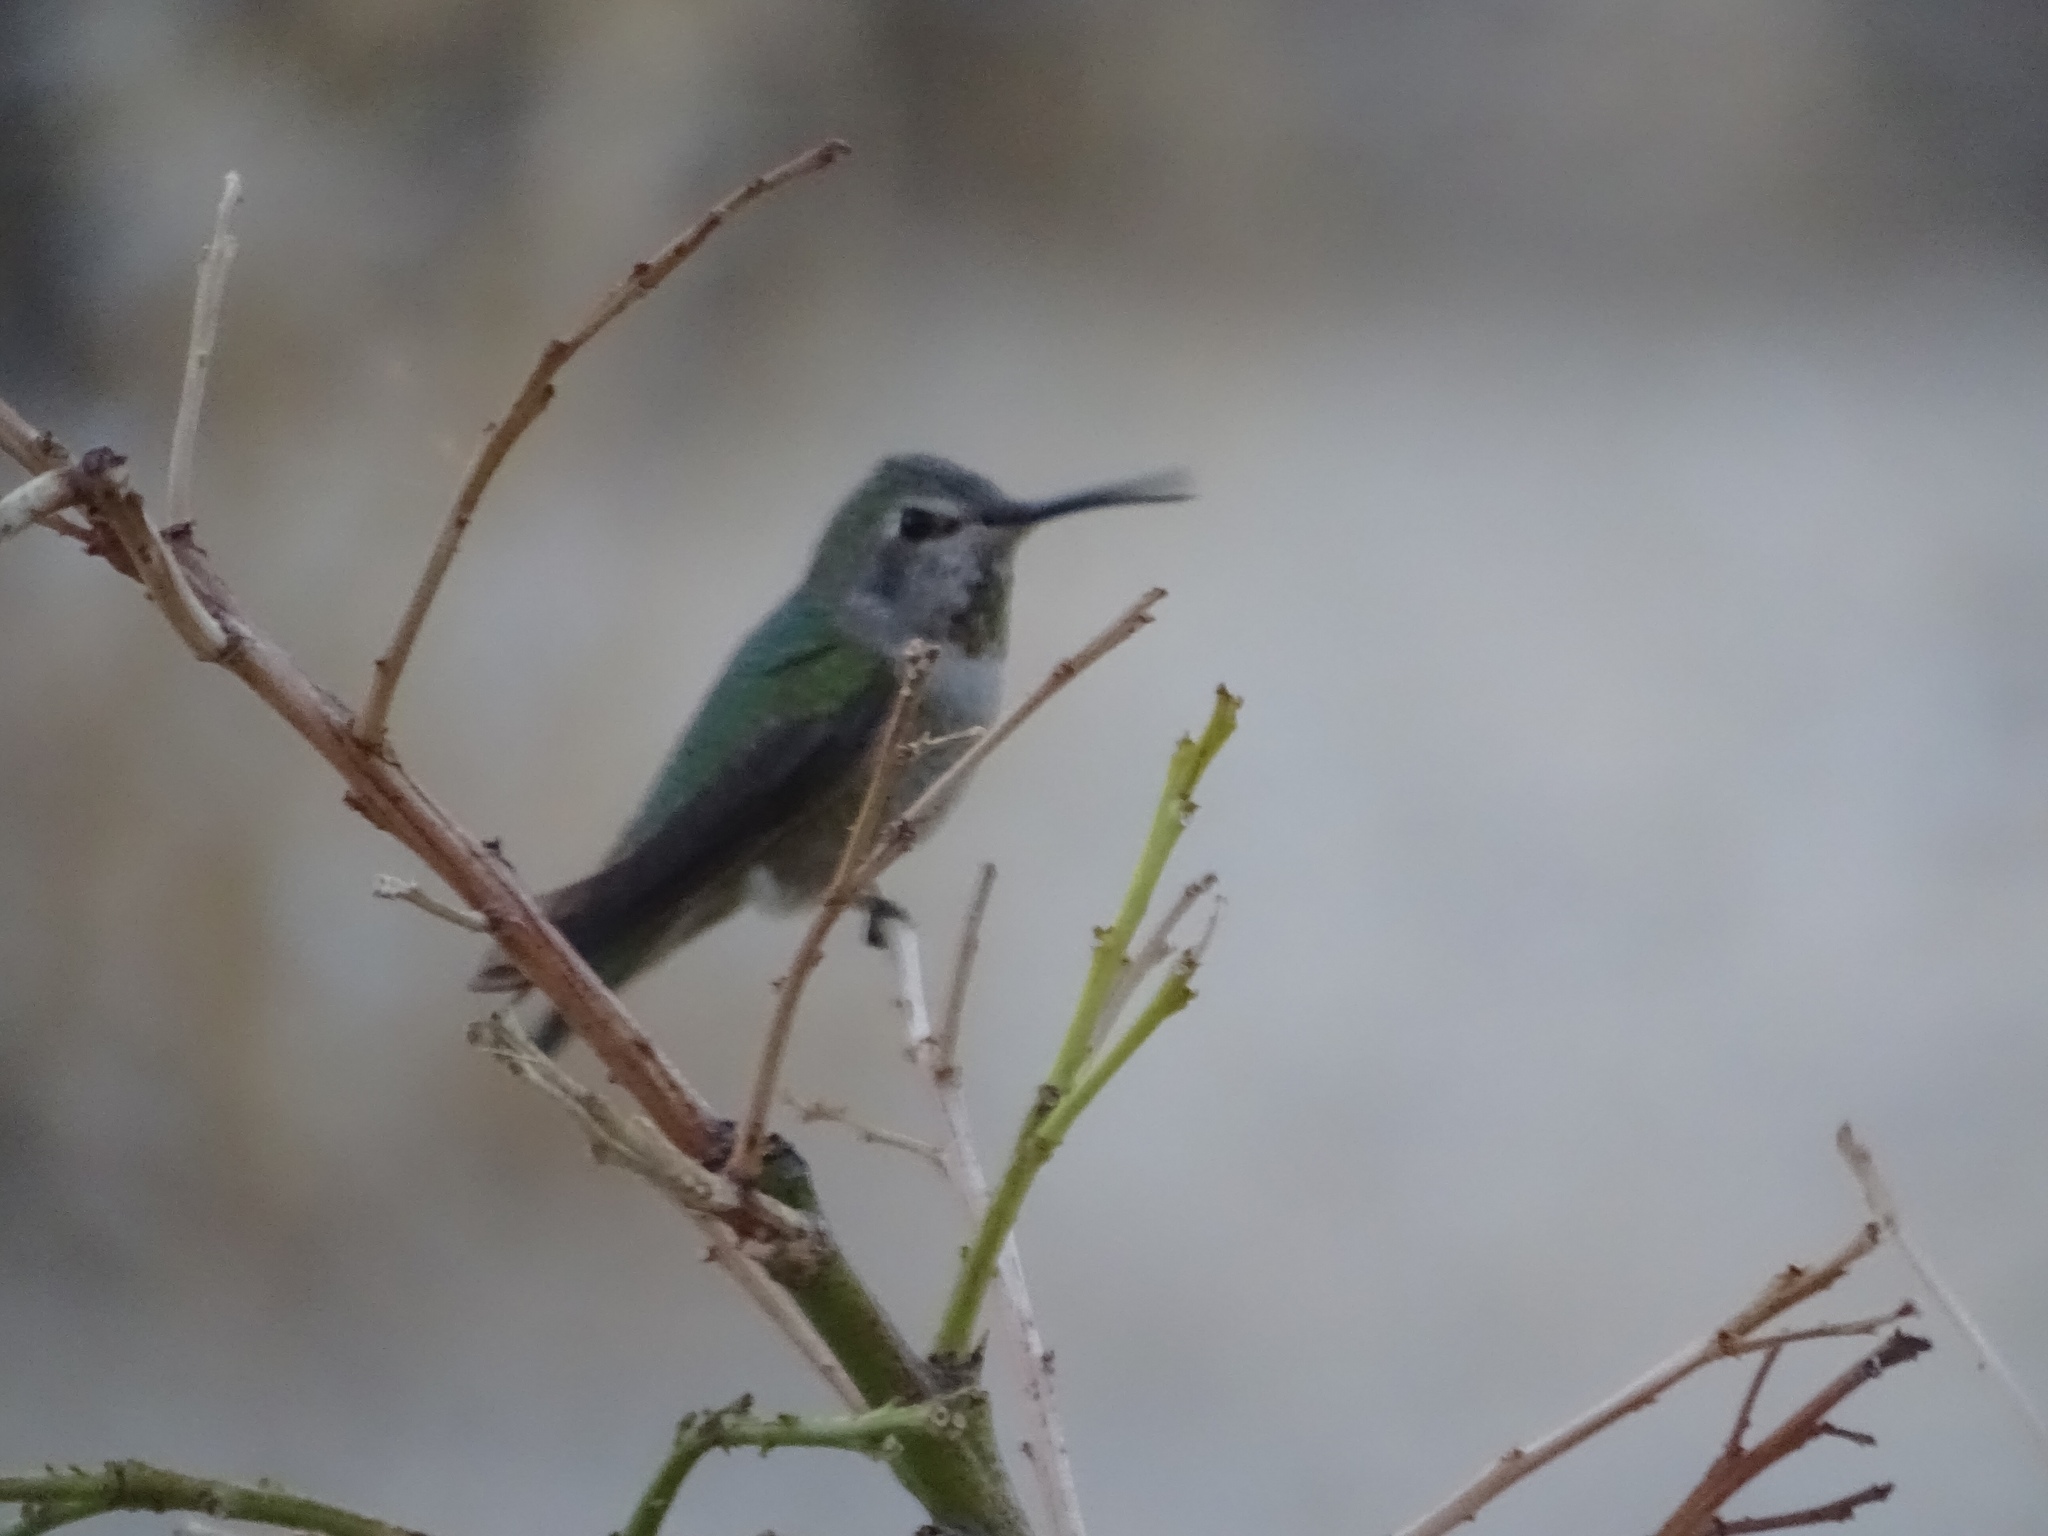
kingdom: Animalia
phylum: Chordata
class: Aves
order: Apodiformes
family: Trochilidae
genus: Calypte
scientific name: Calypte anna
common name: Anna's hummingbird
